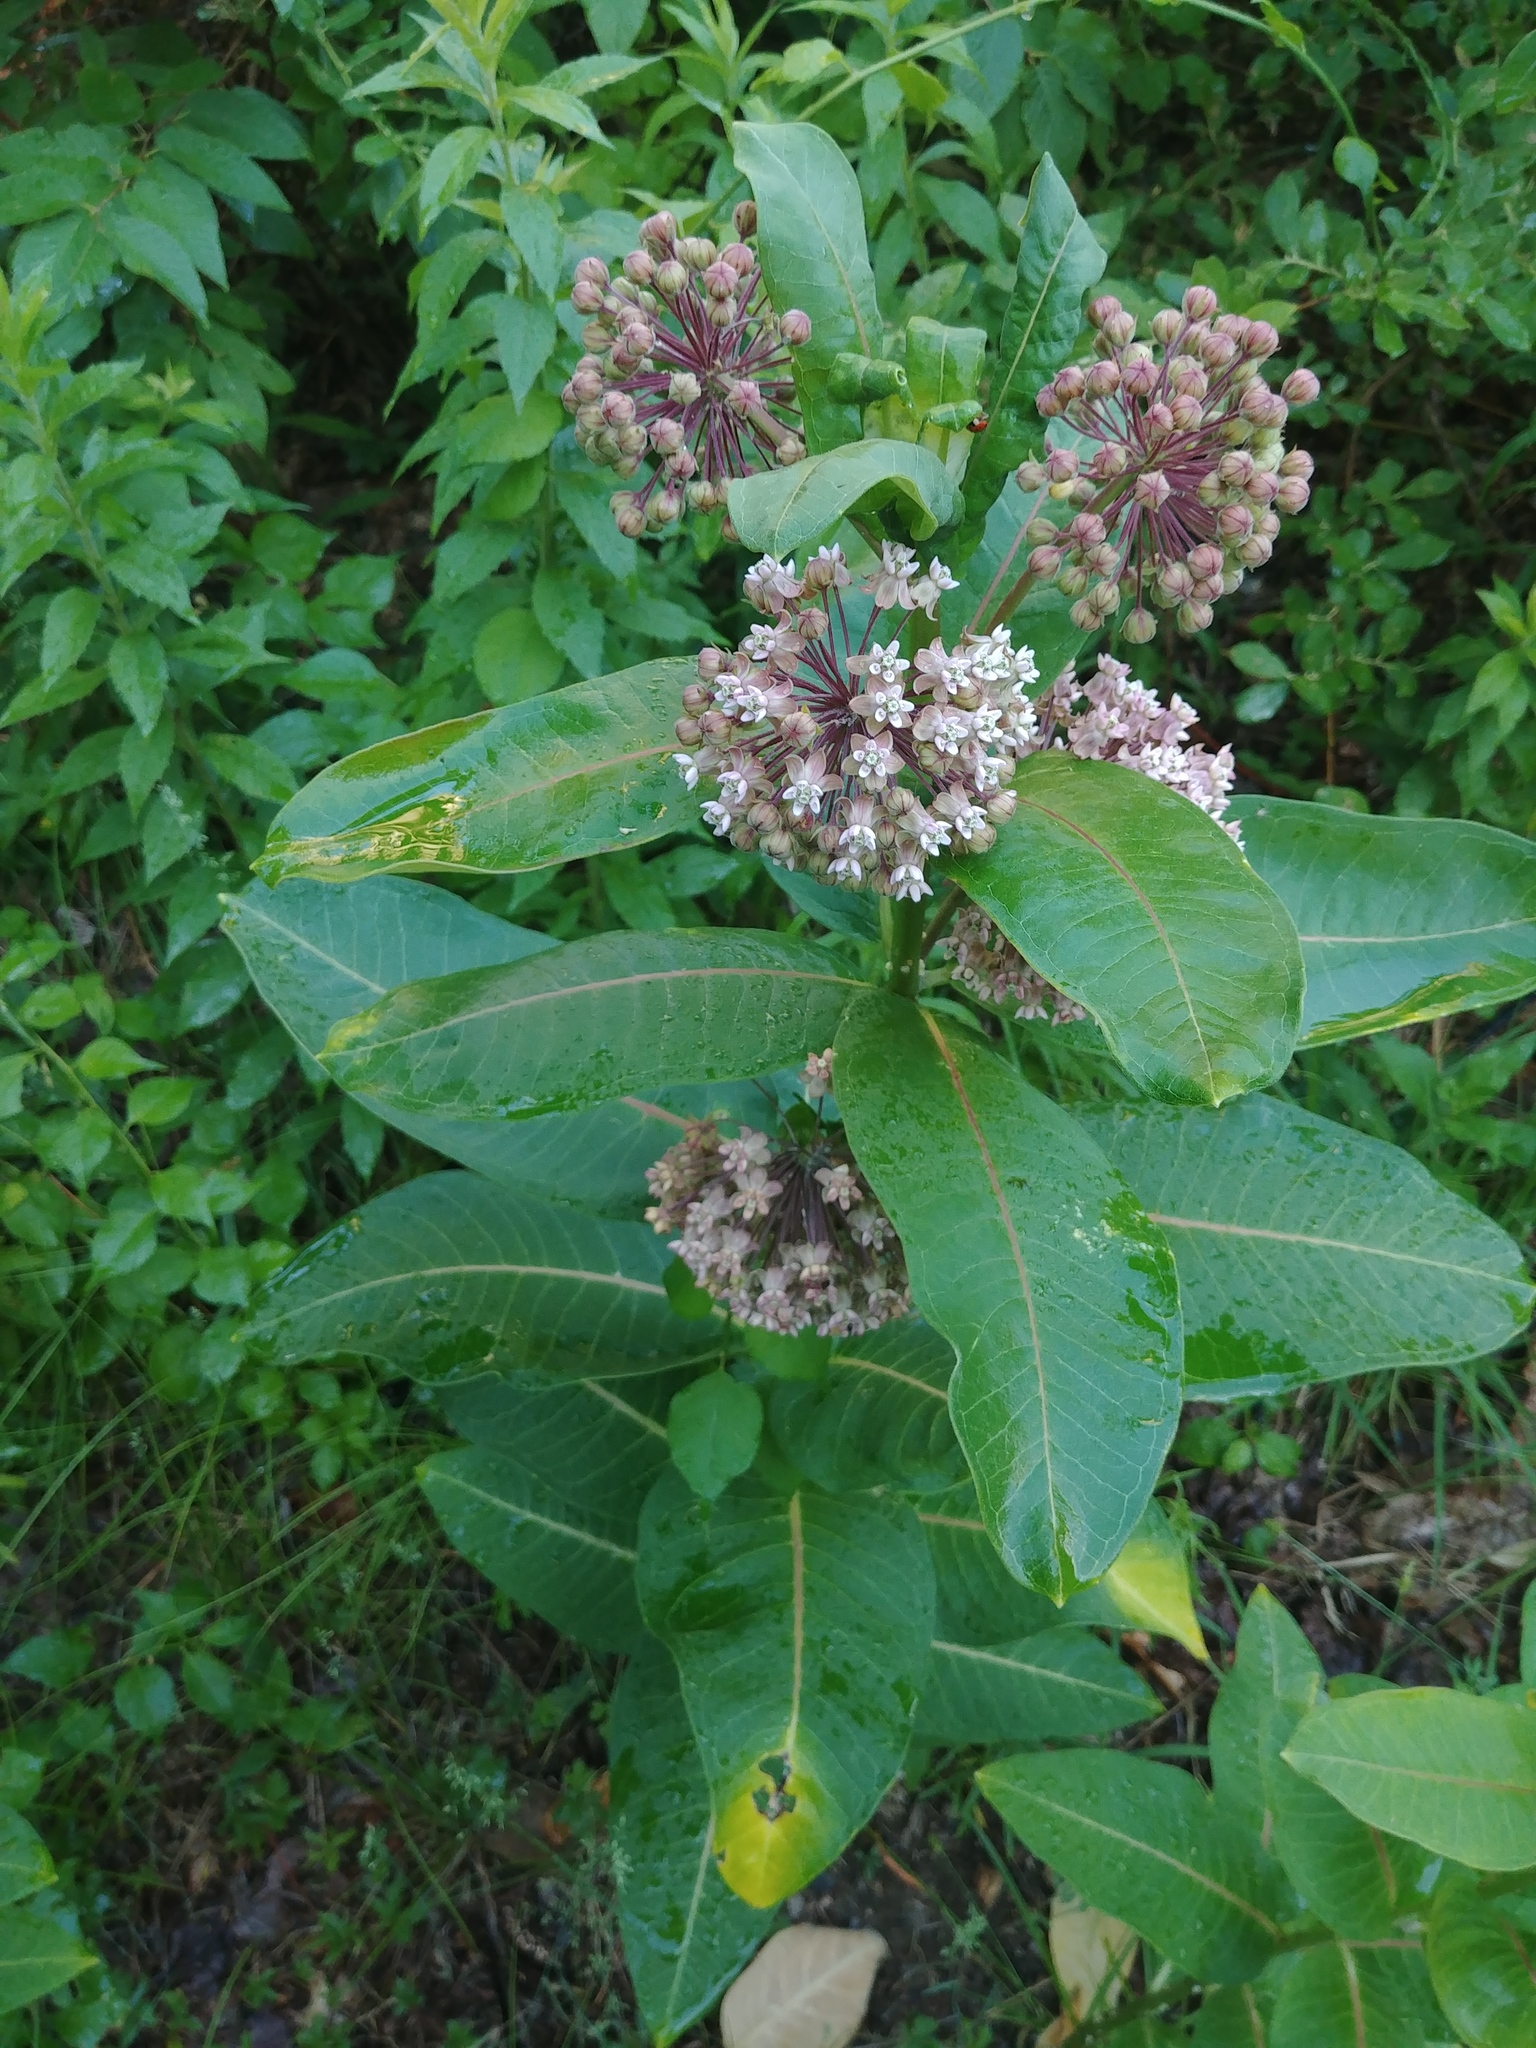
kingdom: Plantae
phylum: Tracheophyta
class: Magnoliopsida
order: Gentianales
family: Apocynaceae
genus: Asclepias
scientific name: Asclepias syriaca
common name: Common milkweed
